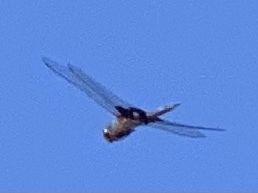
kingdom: Animalia
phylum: Arthropoda
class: Insecta
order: Odonata
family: Libellulidae
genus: Tramea
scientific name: Tramea lacerata
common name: Black saddlebags
